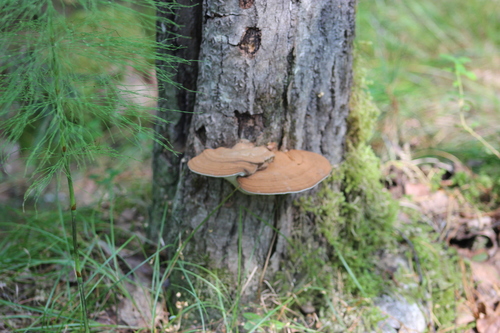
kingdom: Fungi
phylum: Basidiomycota
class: Agaricomycetes
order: Polyporales
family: Polyporaceae
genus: Ganoderma
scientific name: Ganoderma applanatum
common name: Artist's bracket
